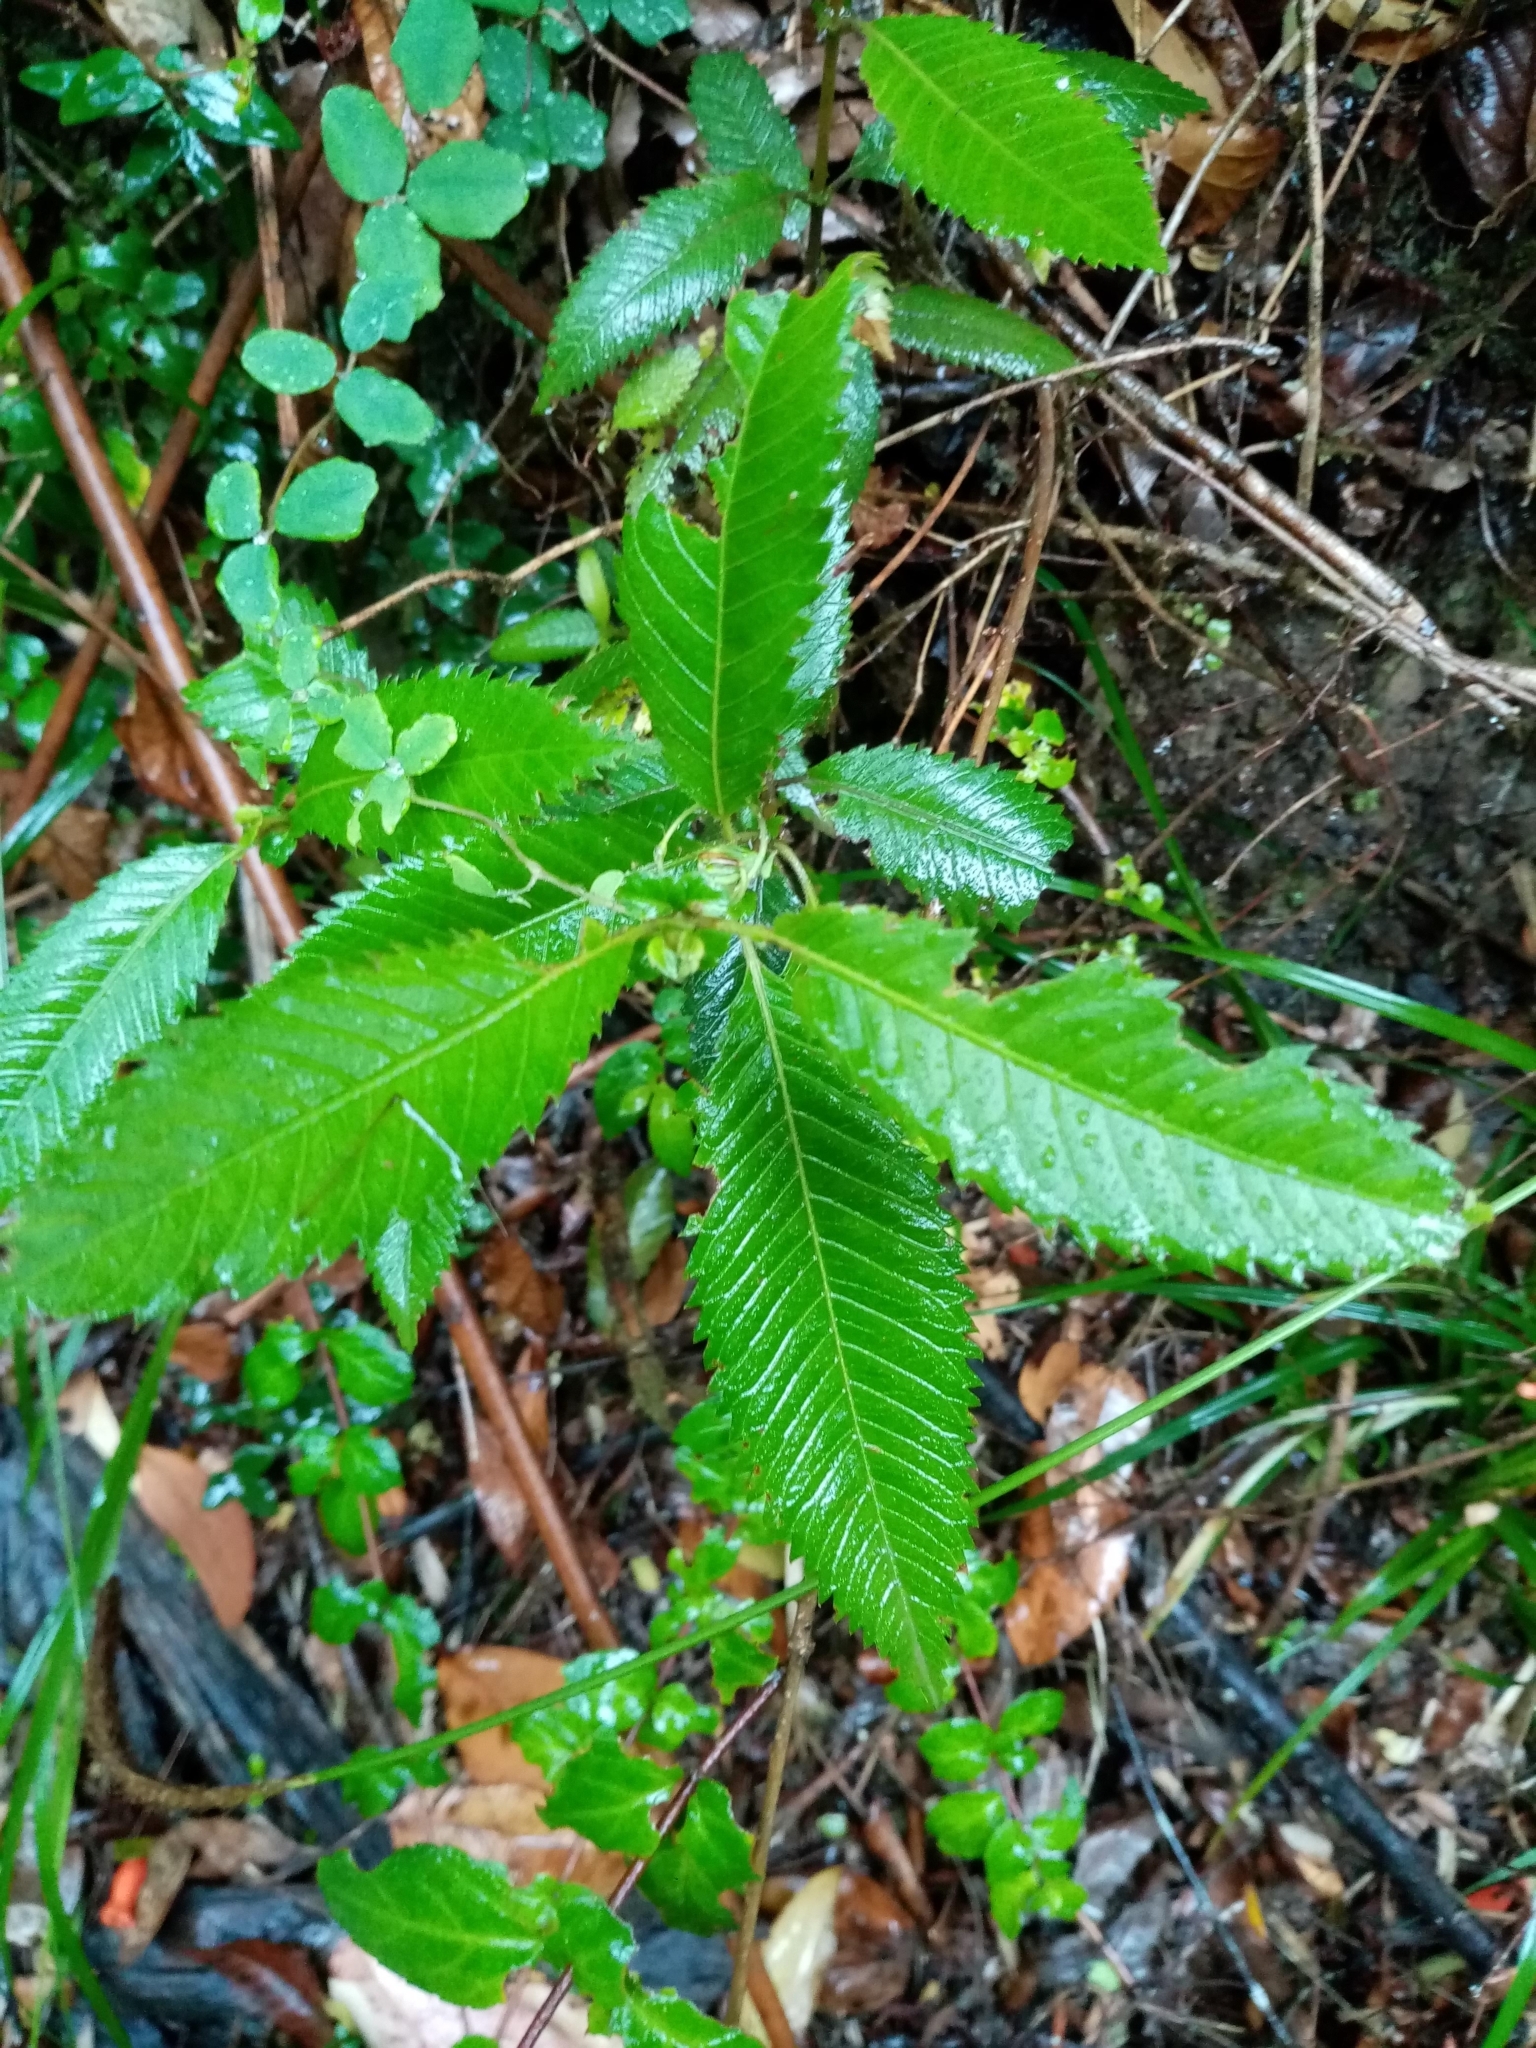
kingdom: Plantae
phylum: Tracheophyta
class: Magnoliopsida
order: Oxalidales
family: Cunoniaceae
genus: Caldcluvia
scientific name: Caldcluvia paniculata
